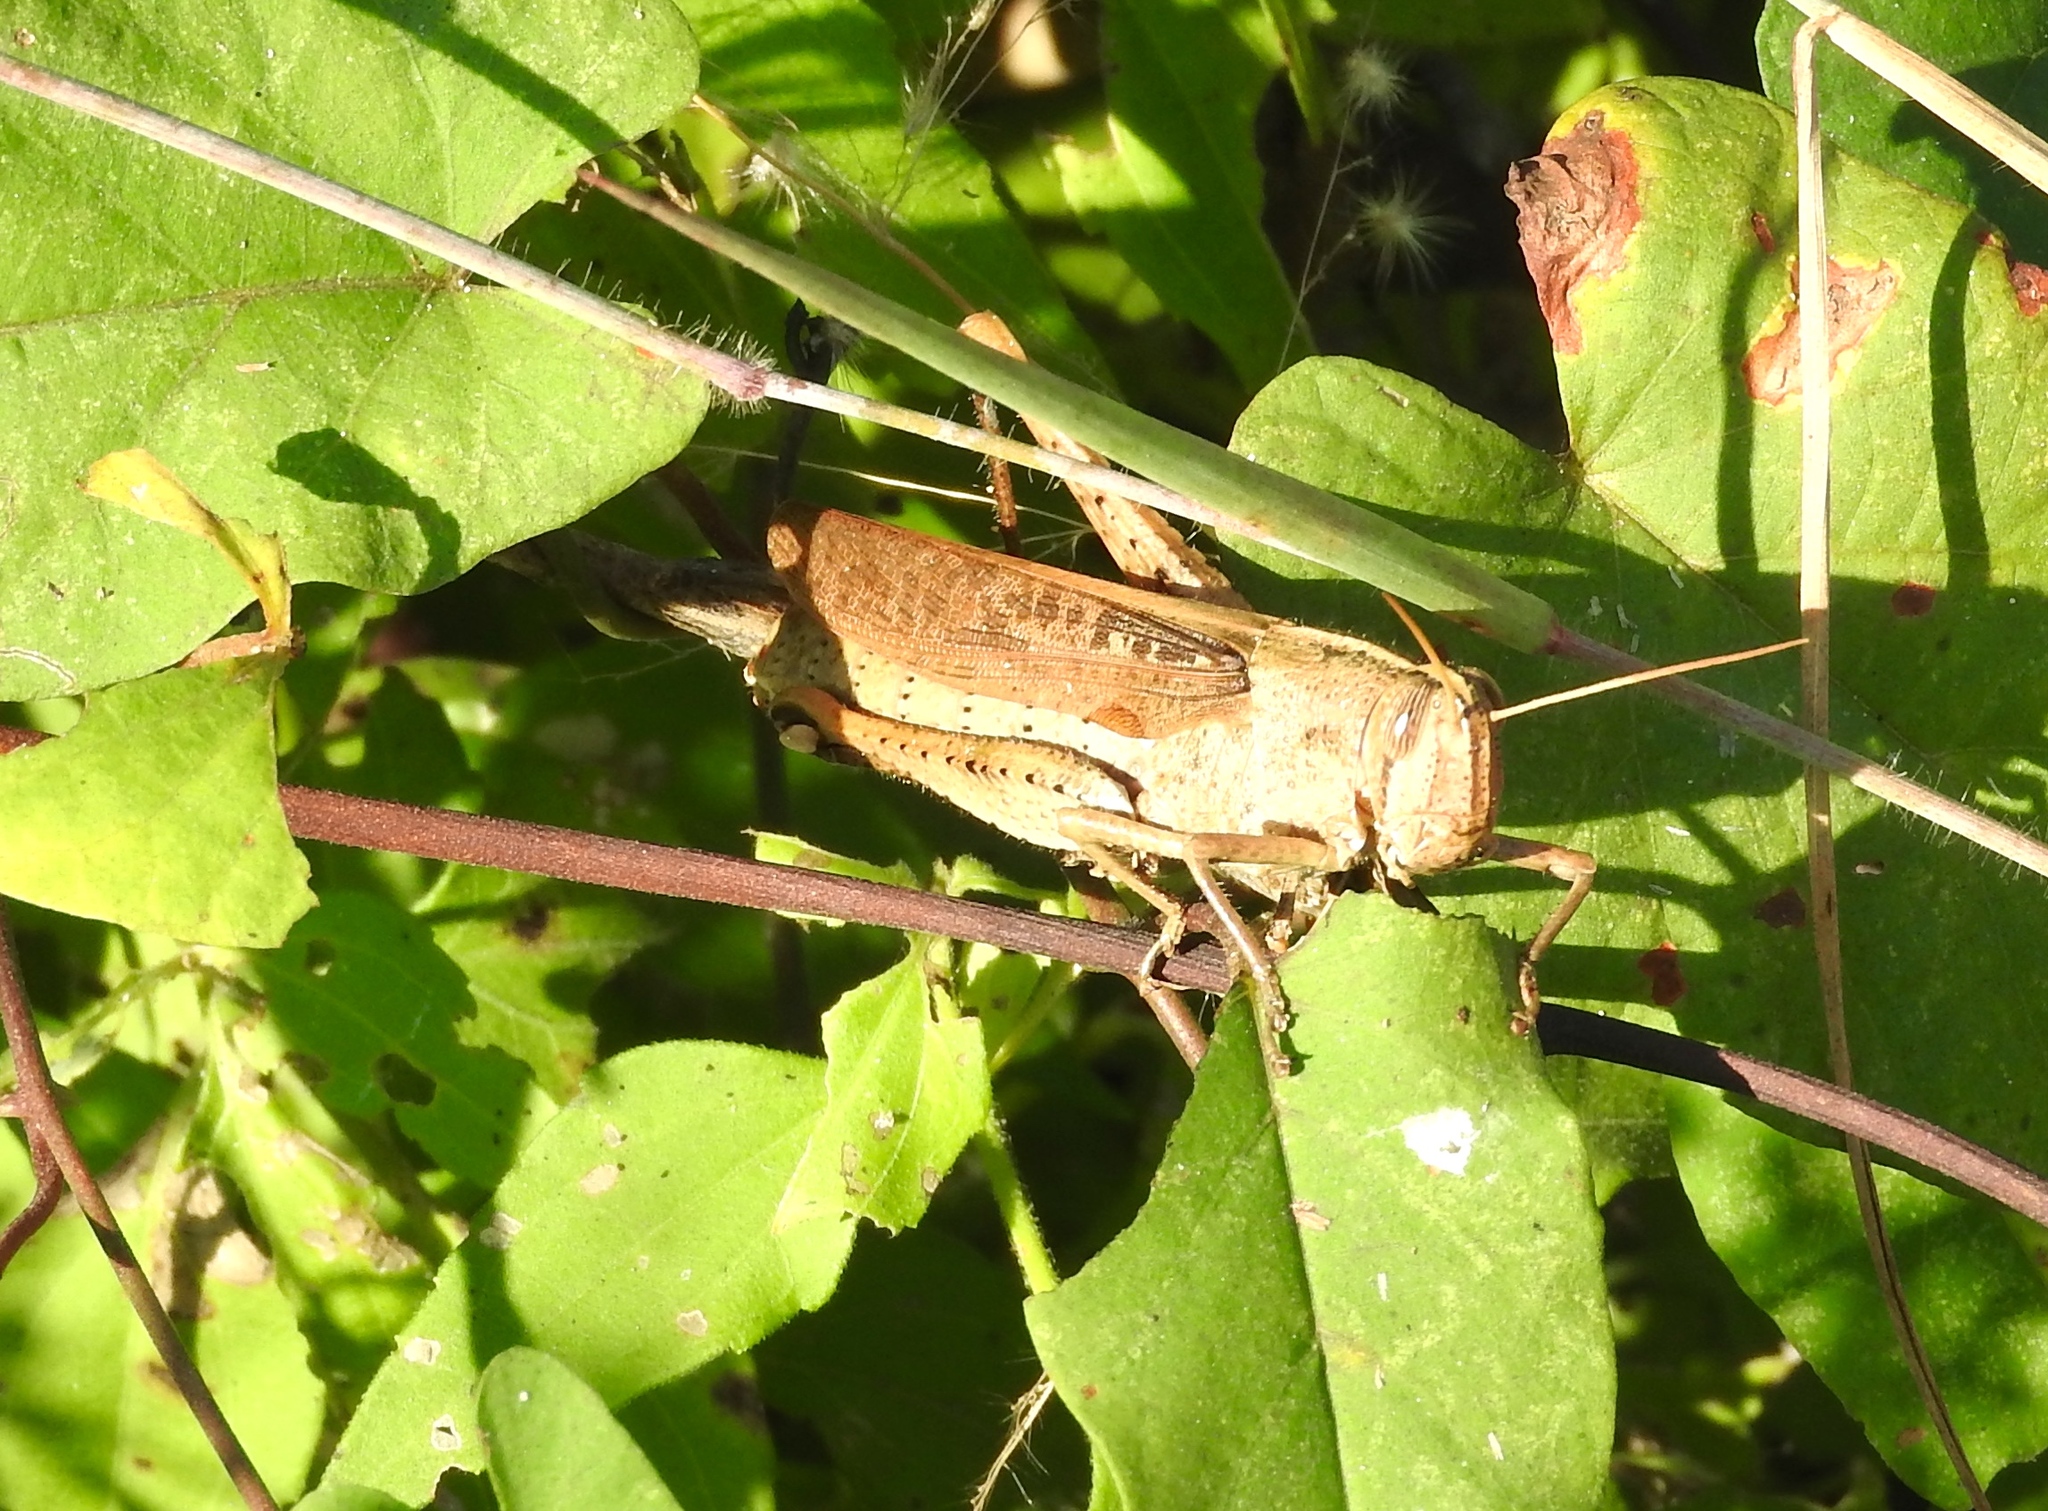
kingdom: Animalia
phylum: Arthropoda
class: Insecta
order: Orthoptera
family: Acrididae
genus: Schistocerca
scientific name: Schistocerca camerata
